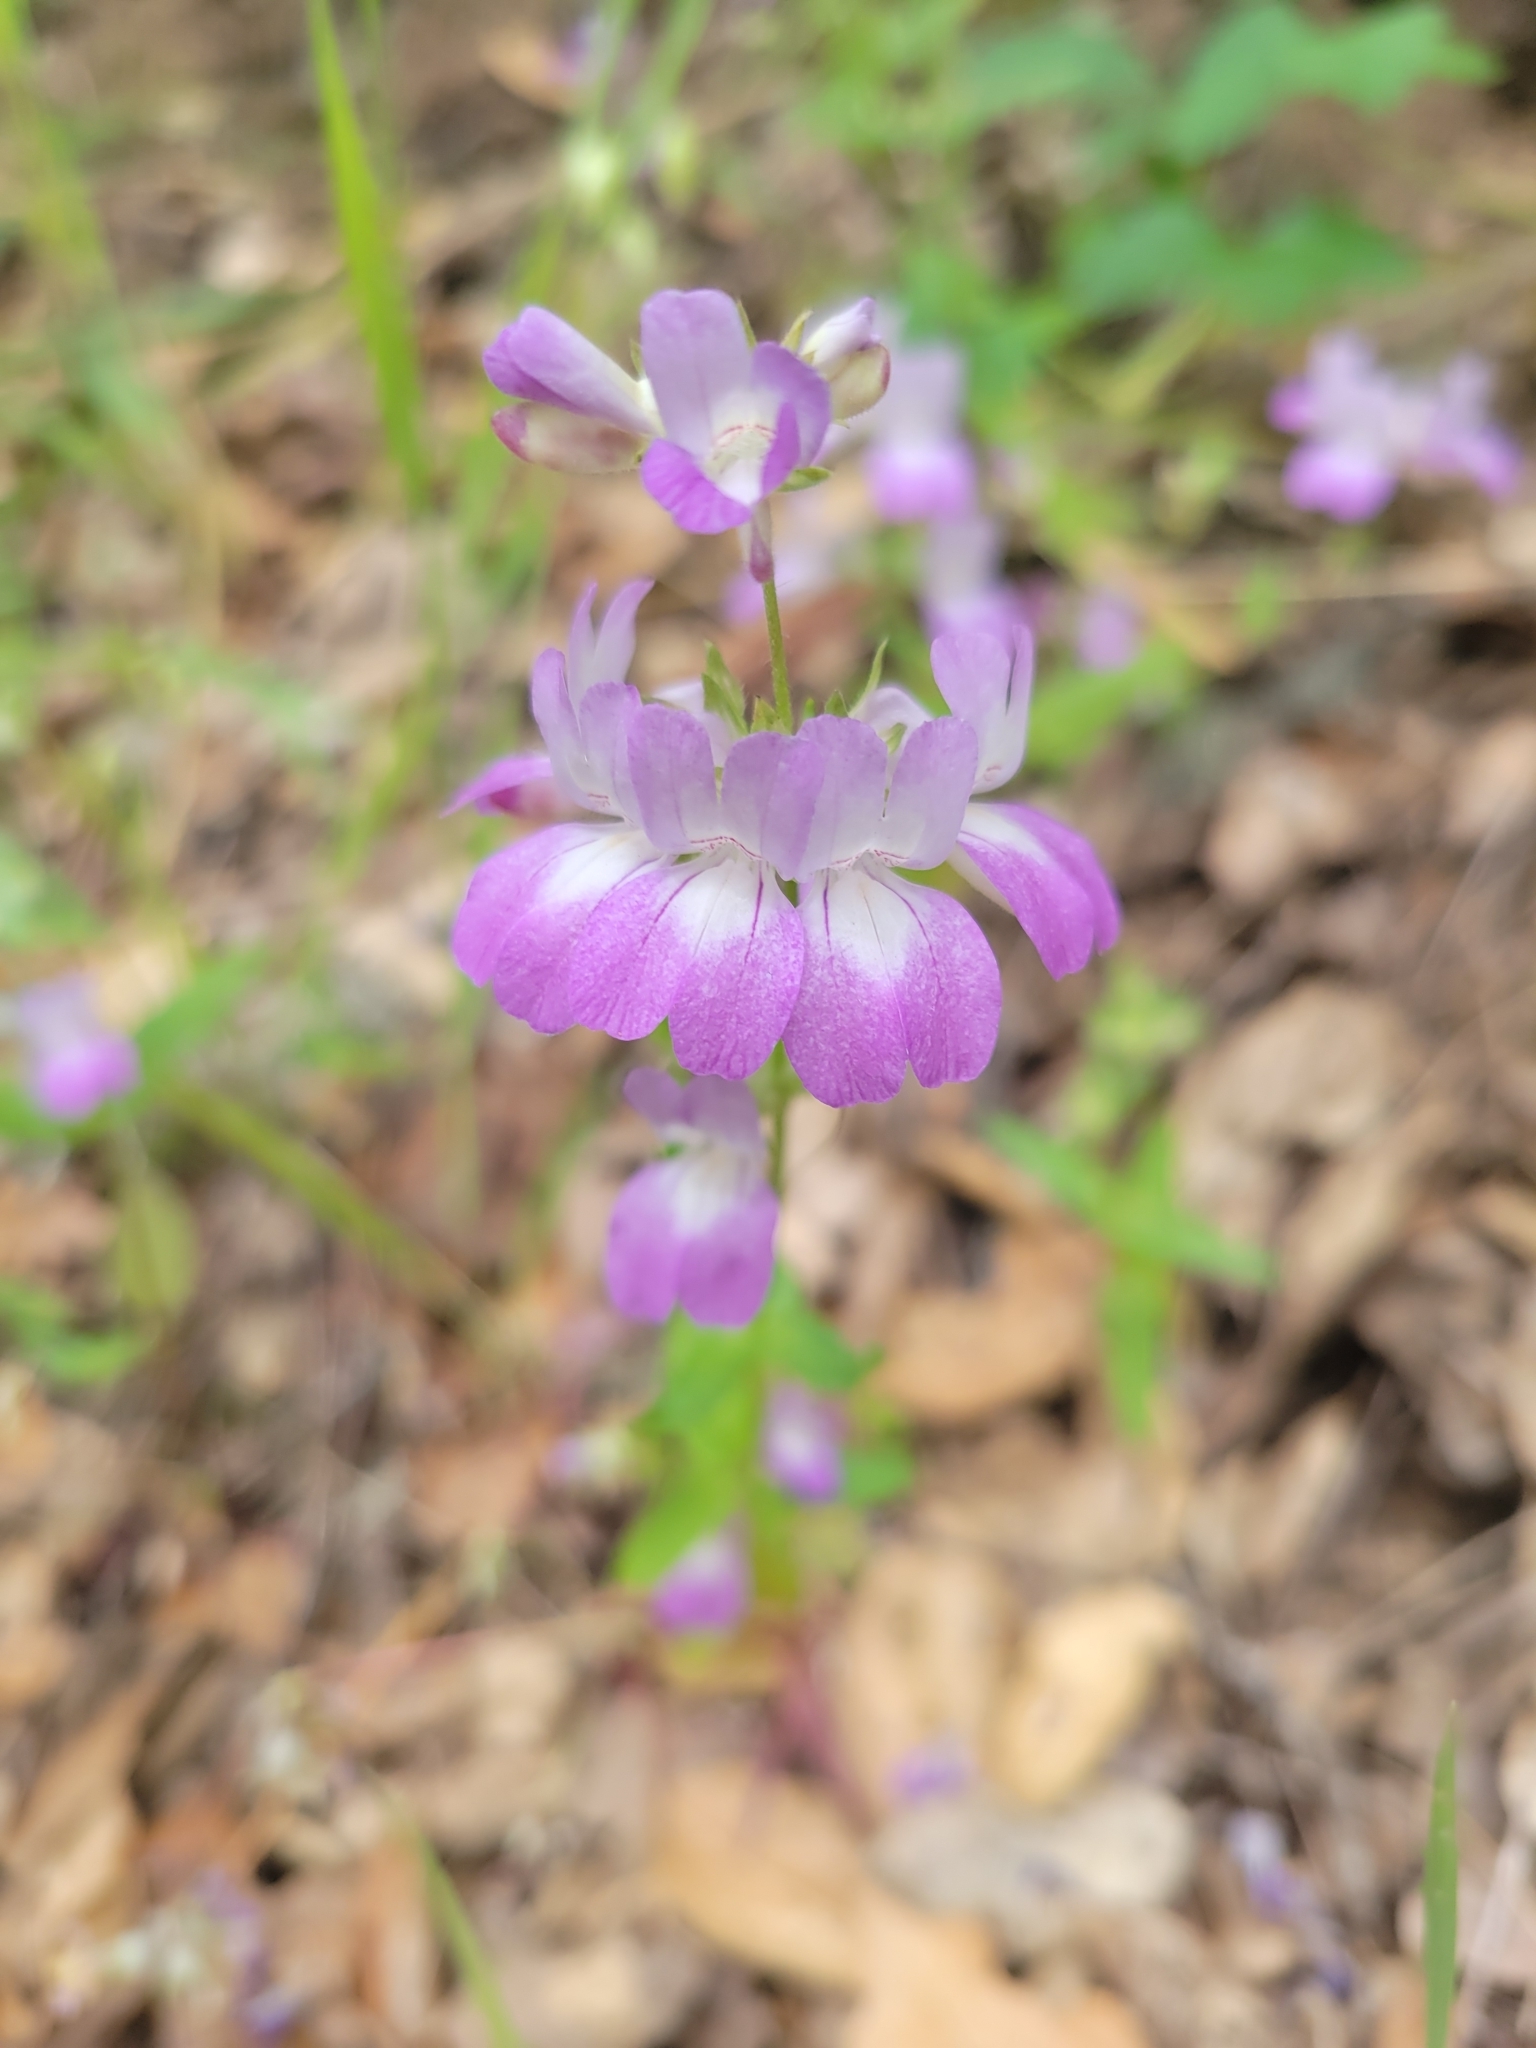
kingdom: Plantae
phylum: Tracheophyta
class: Magnoliopsida
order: Lamiales
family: Plantaginaceae
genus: Collinsia
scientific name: Collinsia heterophylla
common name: Chinese-houses
